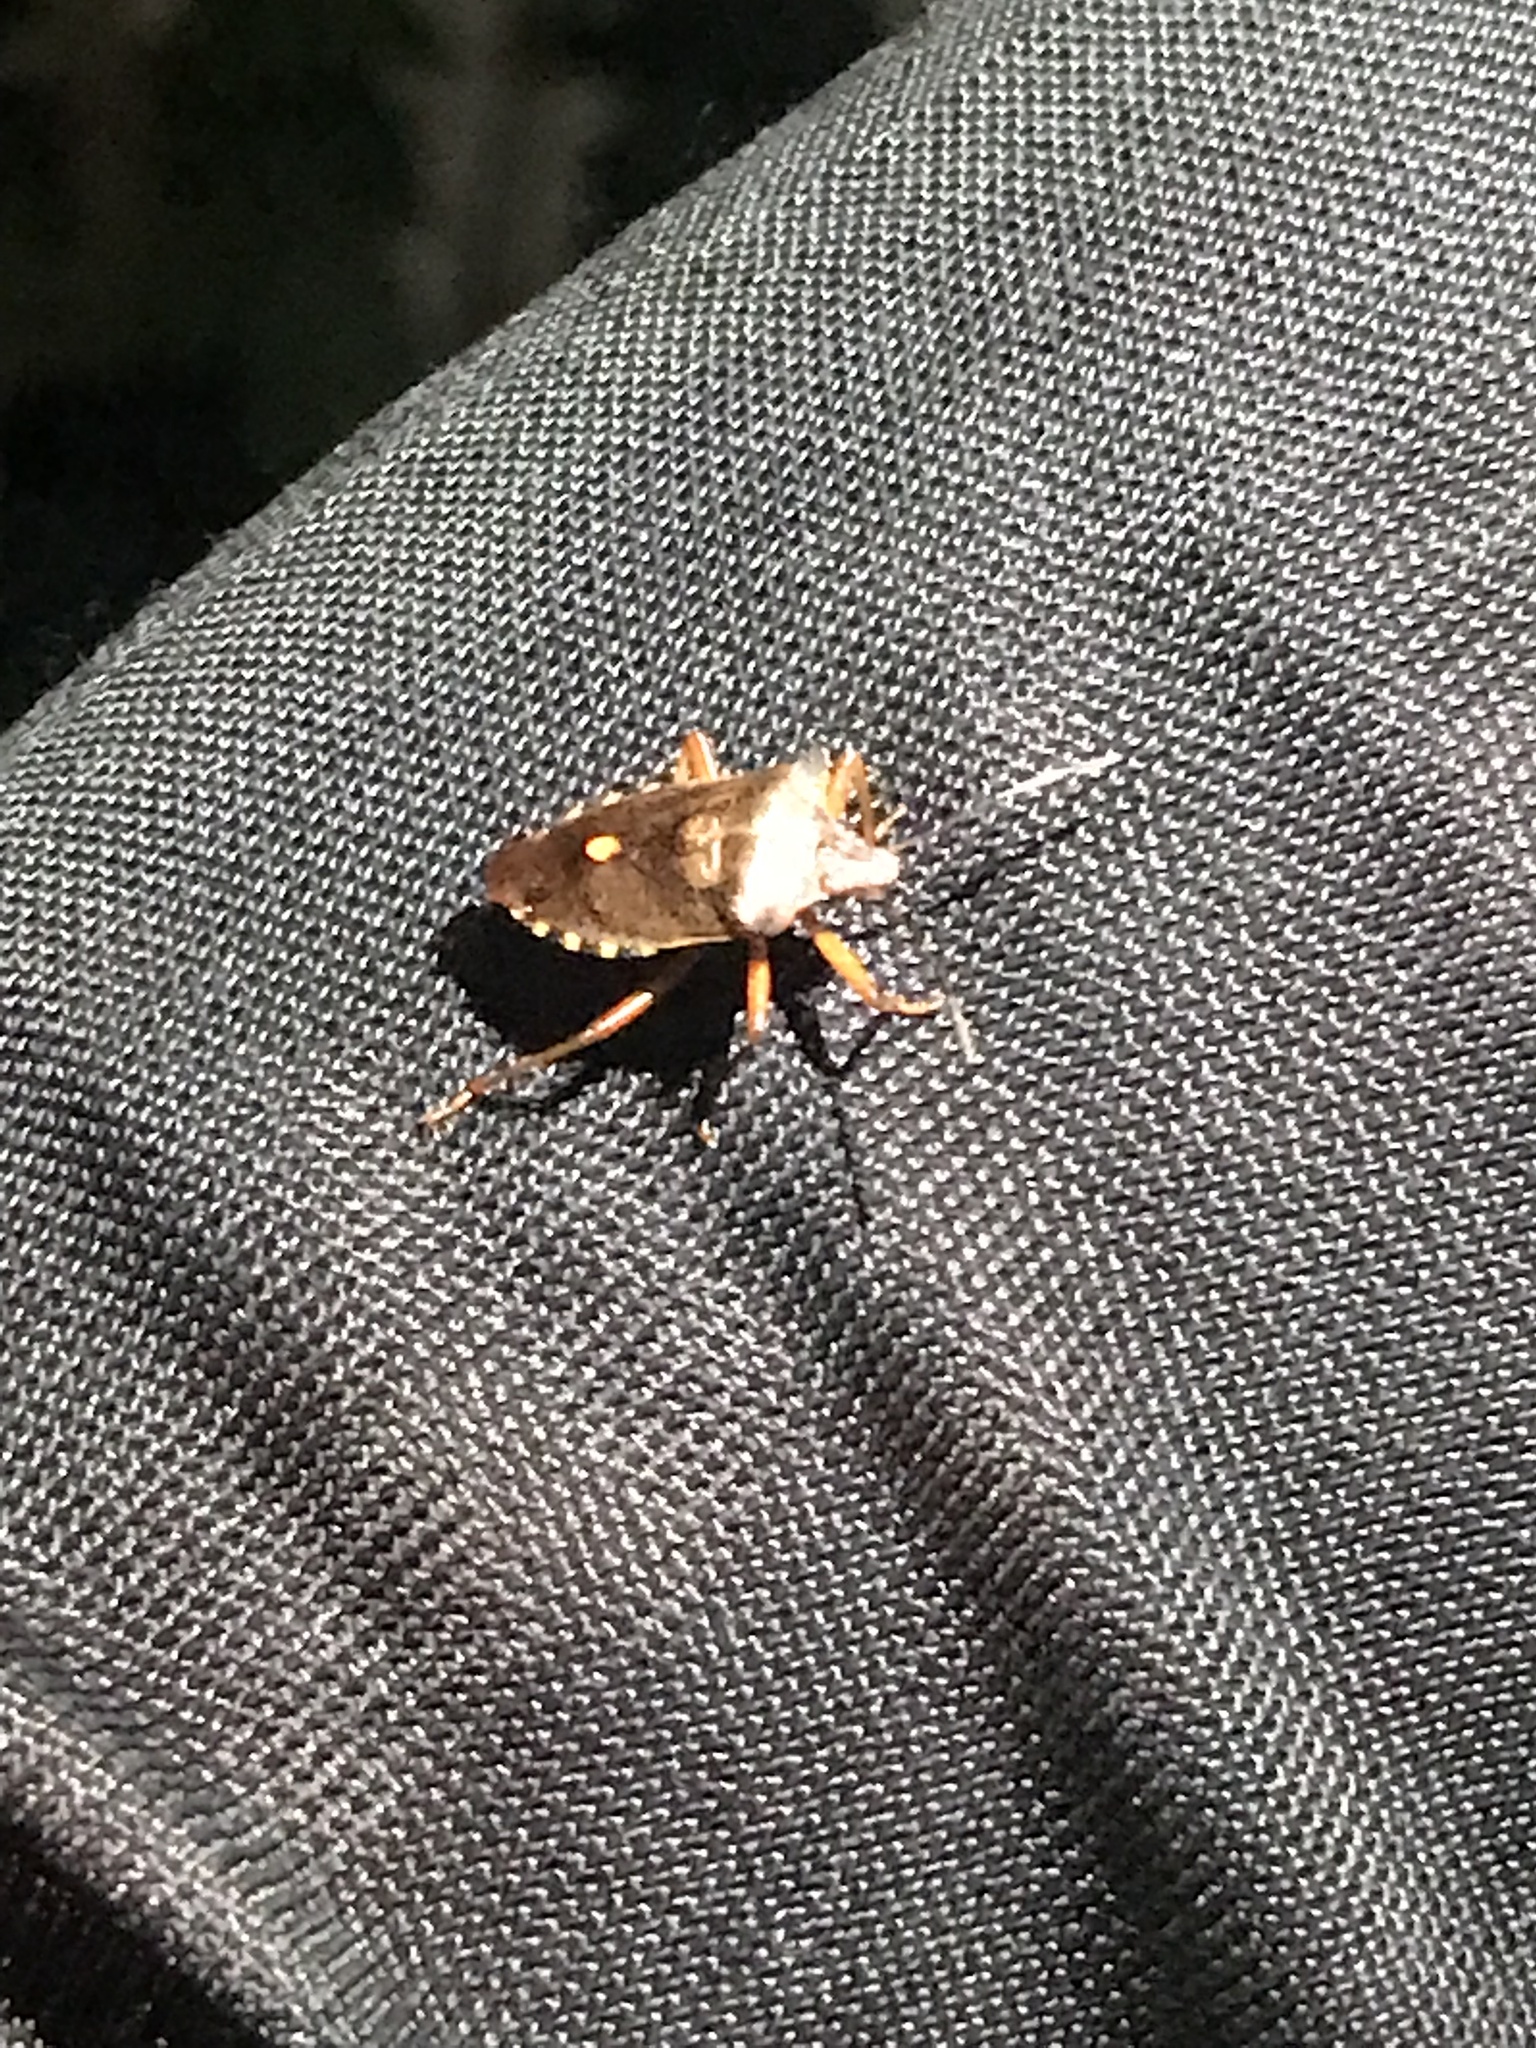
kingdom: Animalia
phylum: Arthropoda
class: Insecta
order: Hemiptera
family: Pentatomidae
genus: Pentatoma
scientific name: Pentatoma rufipes
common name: Forest bug
